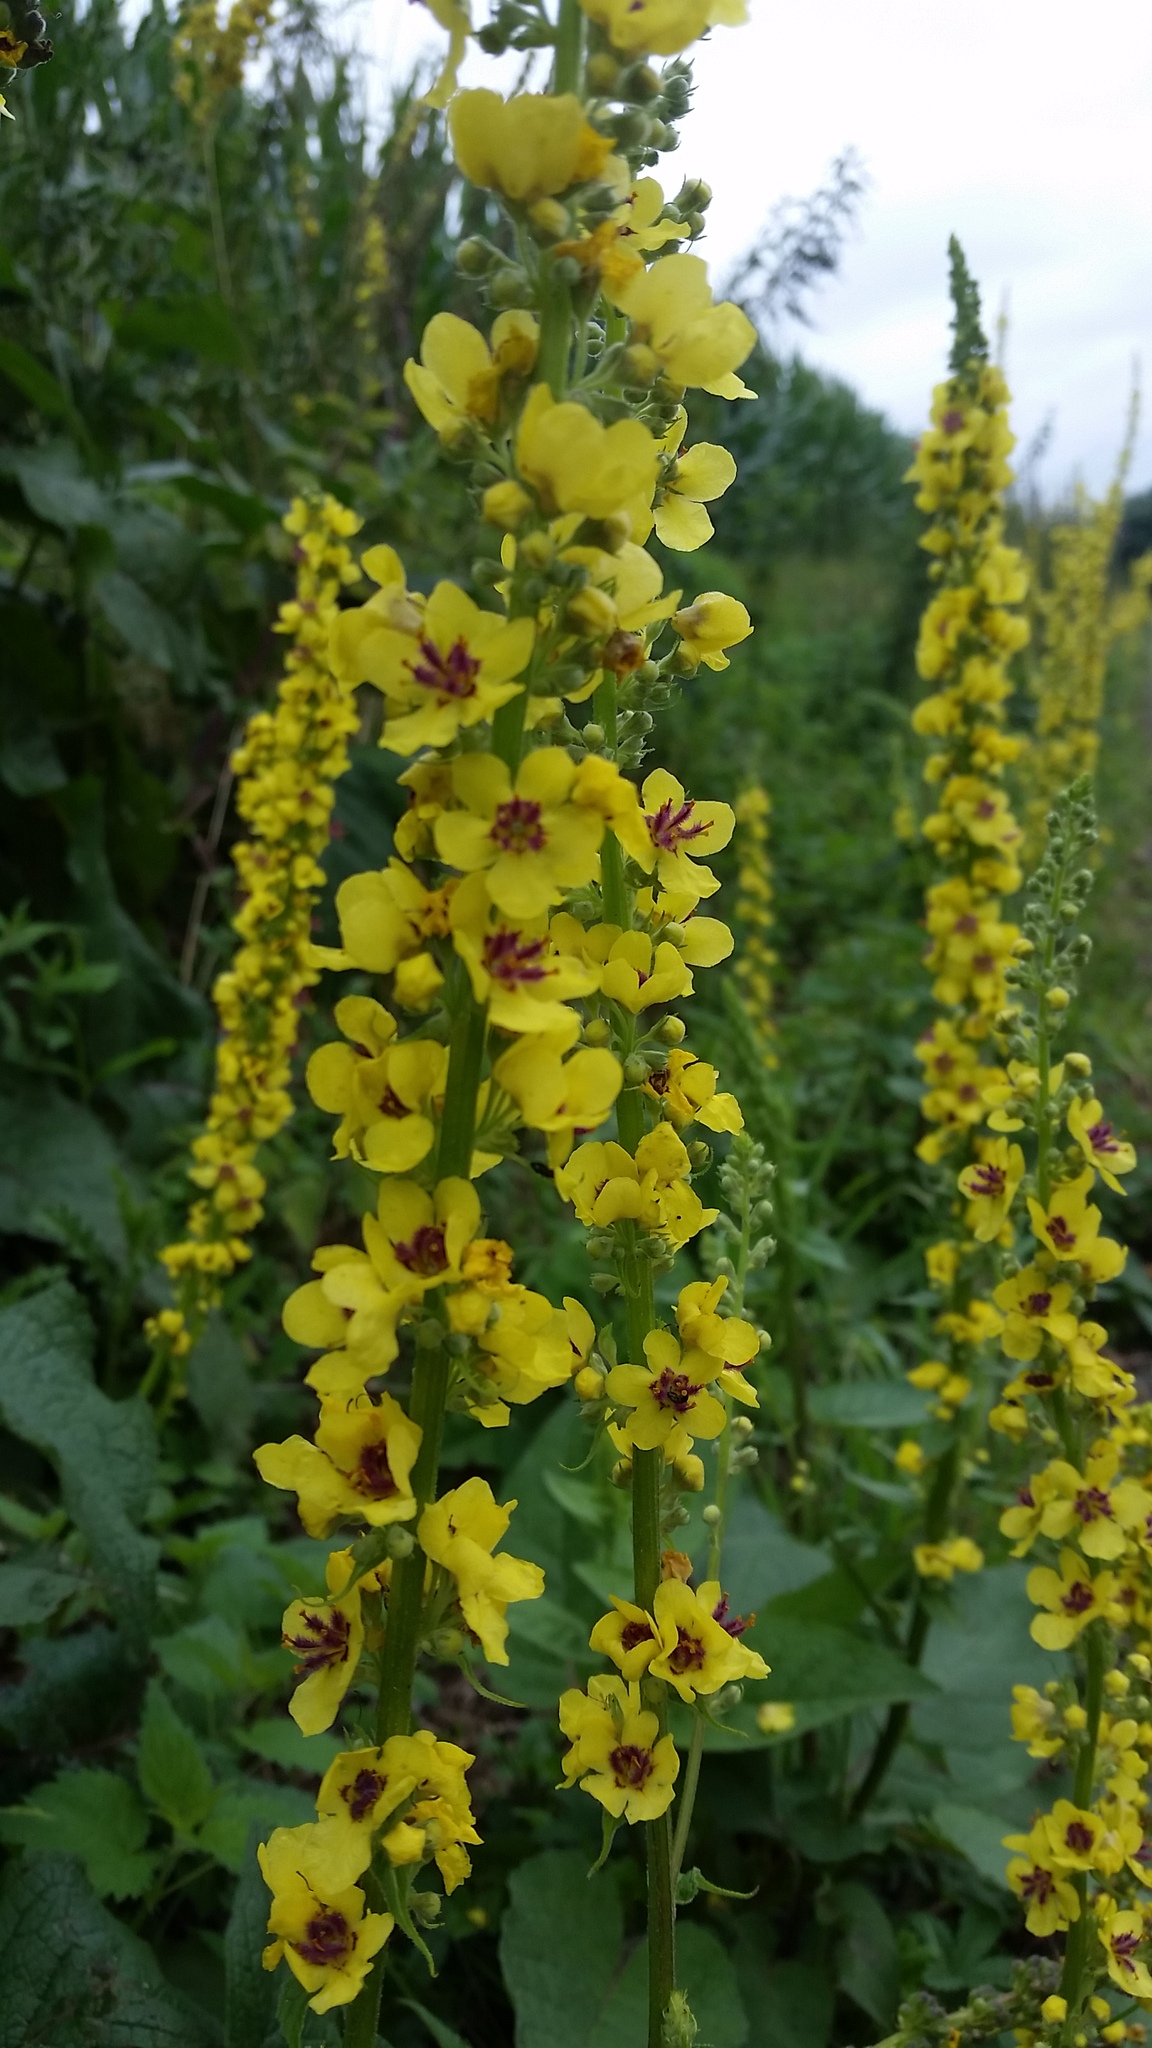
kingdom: Plantae
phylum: Tracheophyta
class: Magnoliopsida
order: Lamiales
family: Scrophulariaceae
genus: Verbascum
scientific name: Verbascum nigrum
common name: Dark mullein
